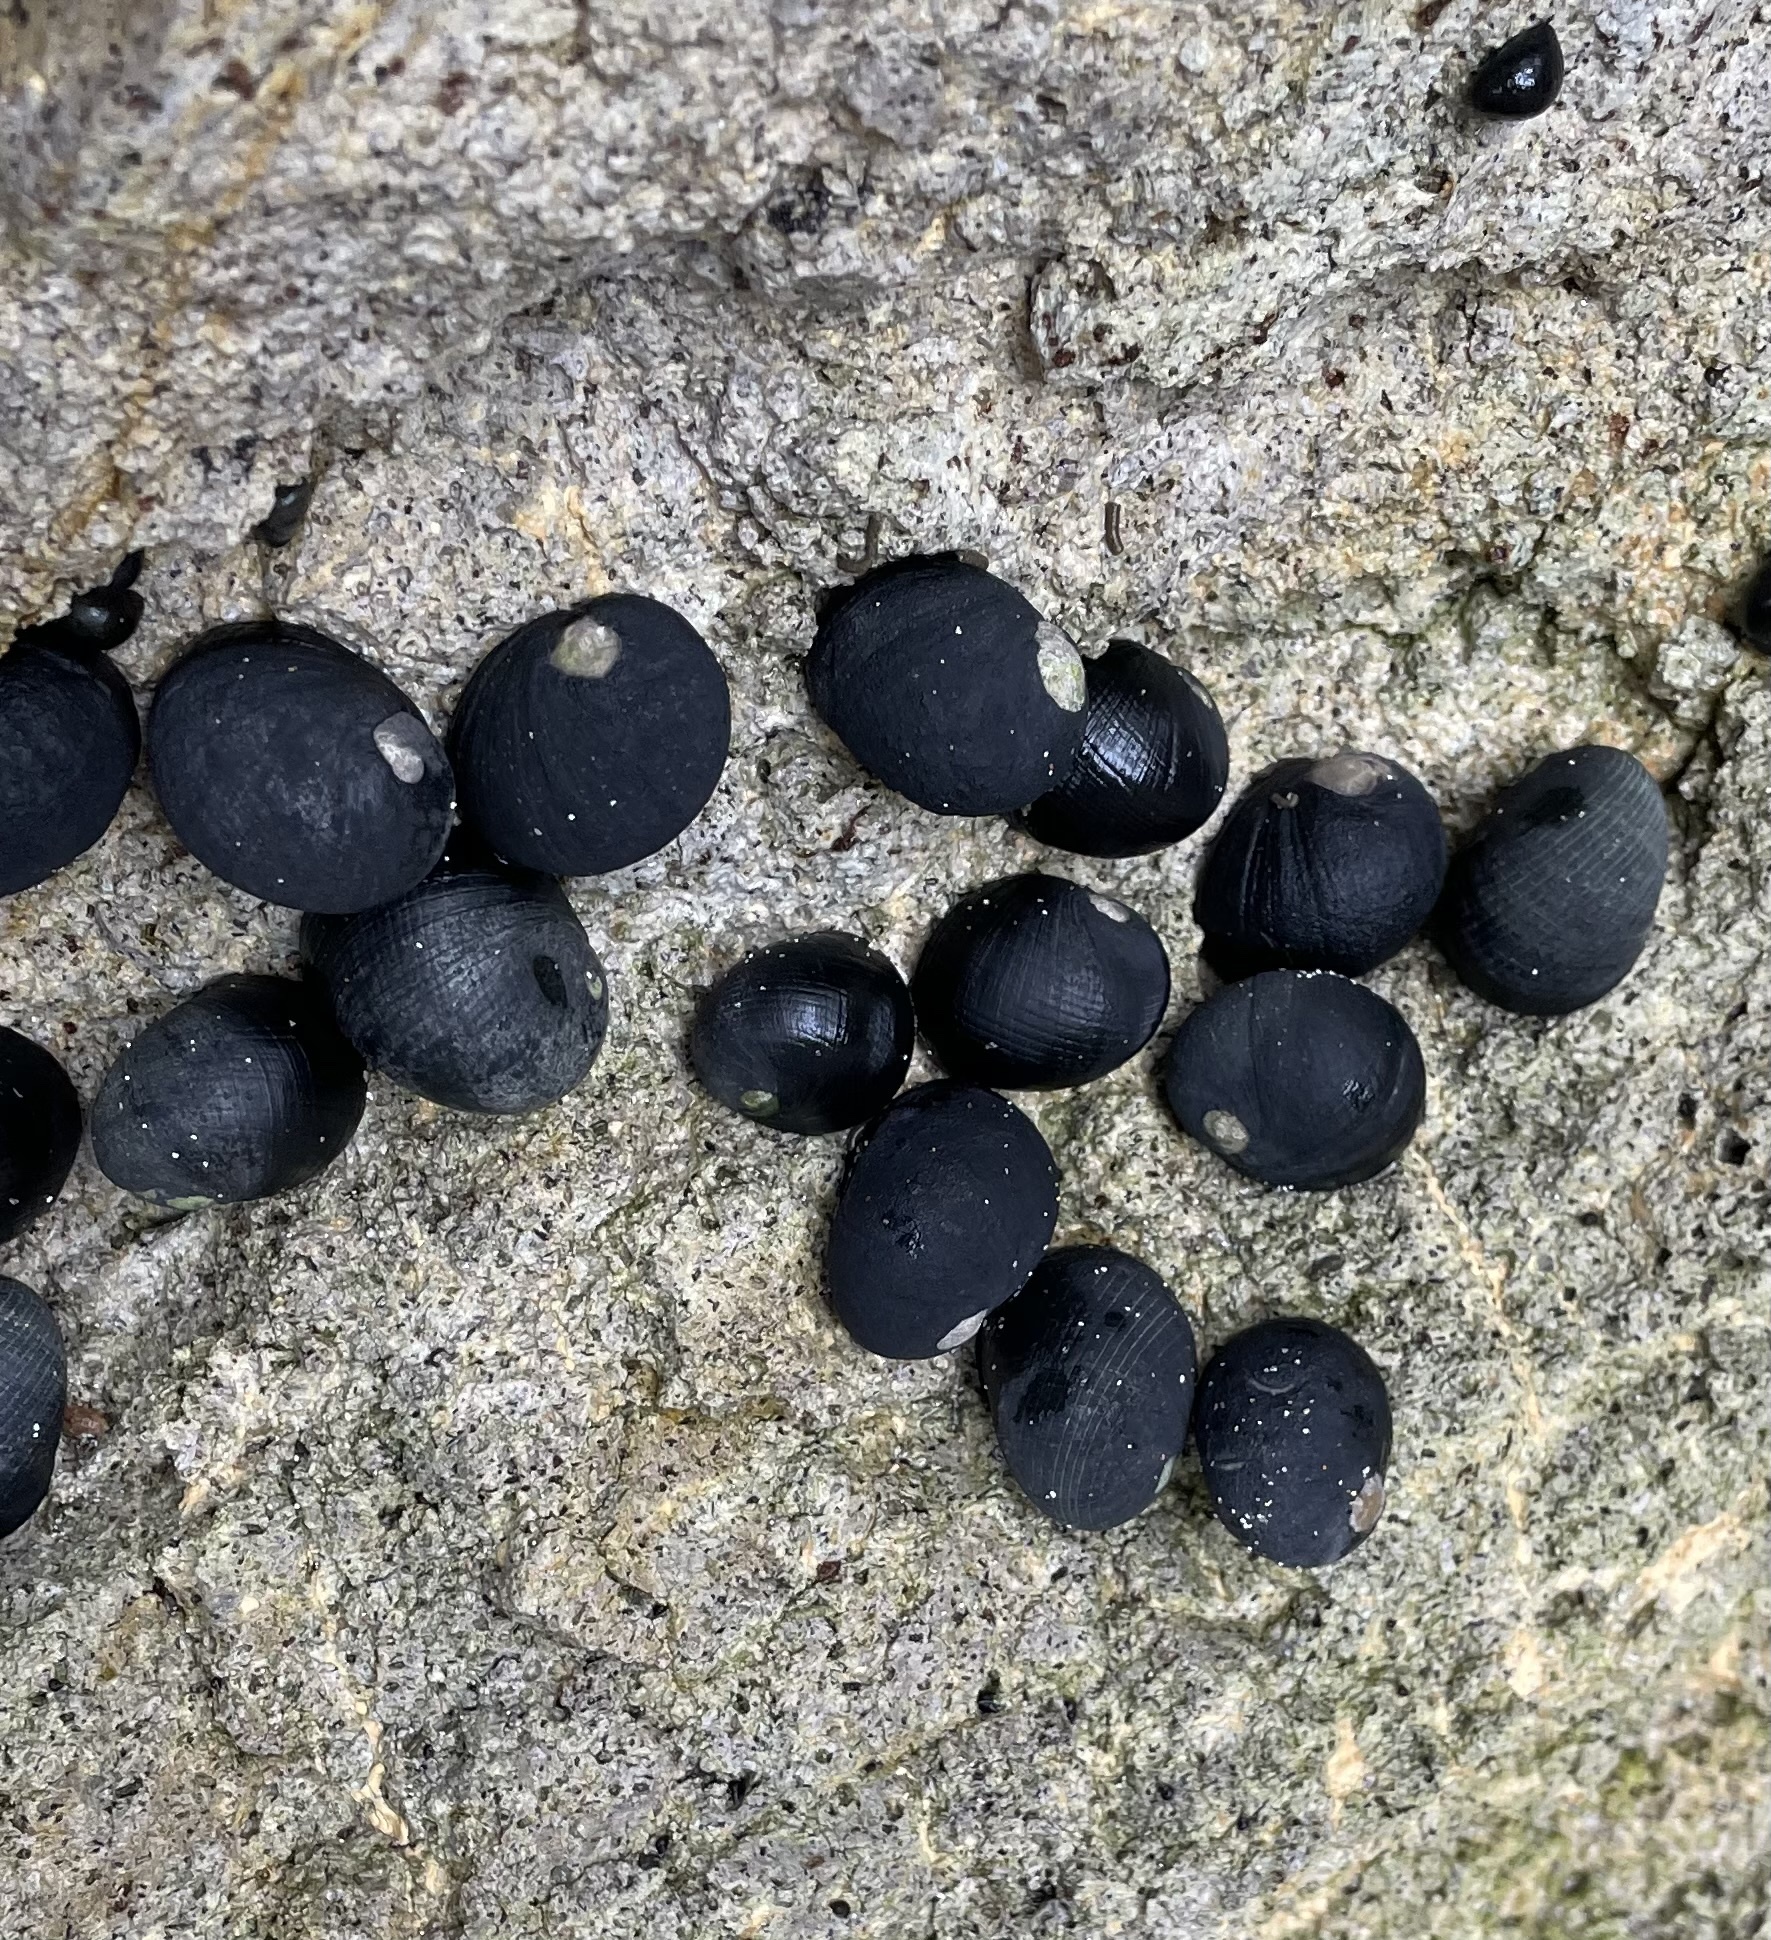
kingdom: Animalia
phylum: Mollusca
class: Gastropoda
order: Cycloneritida
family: Neritidae
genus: Nerita
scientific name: Nerita melanotragus
